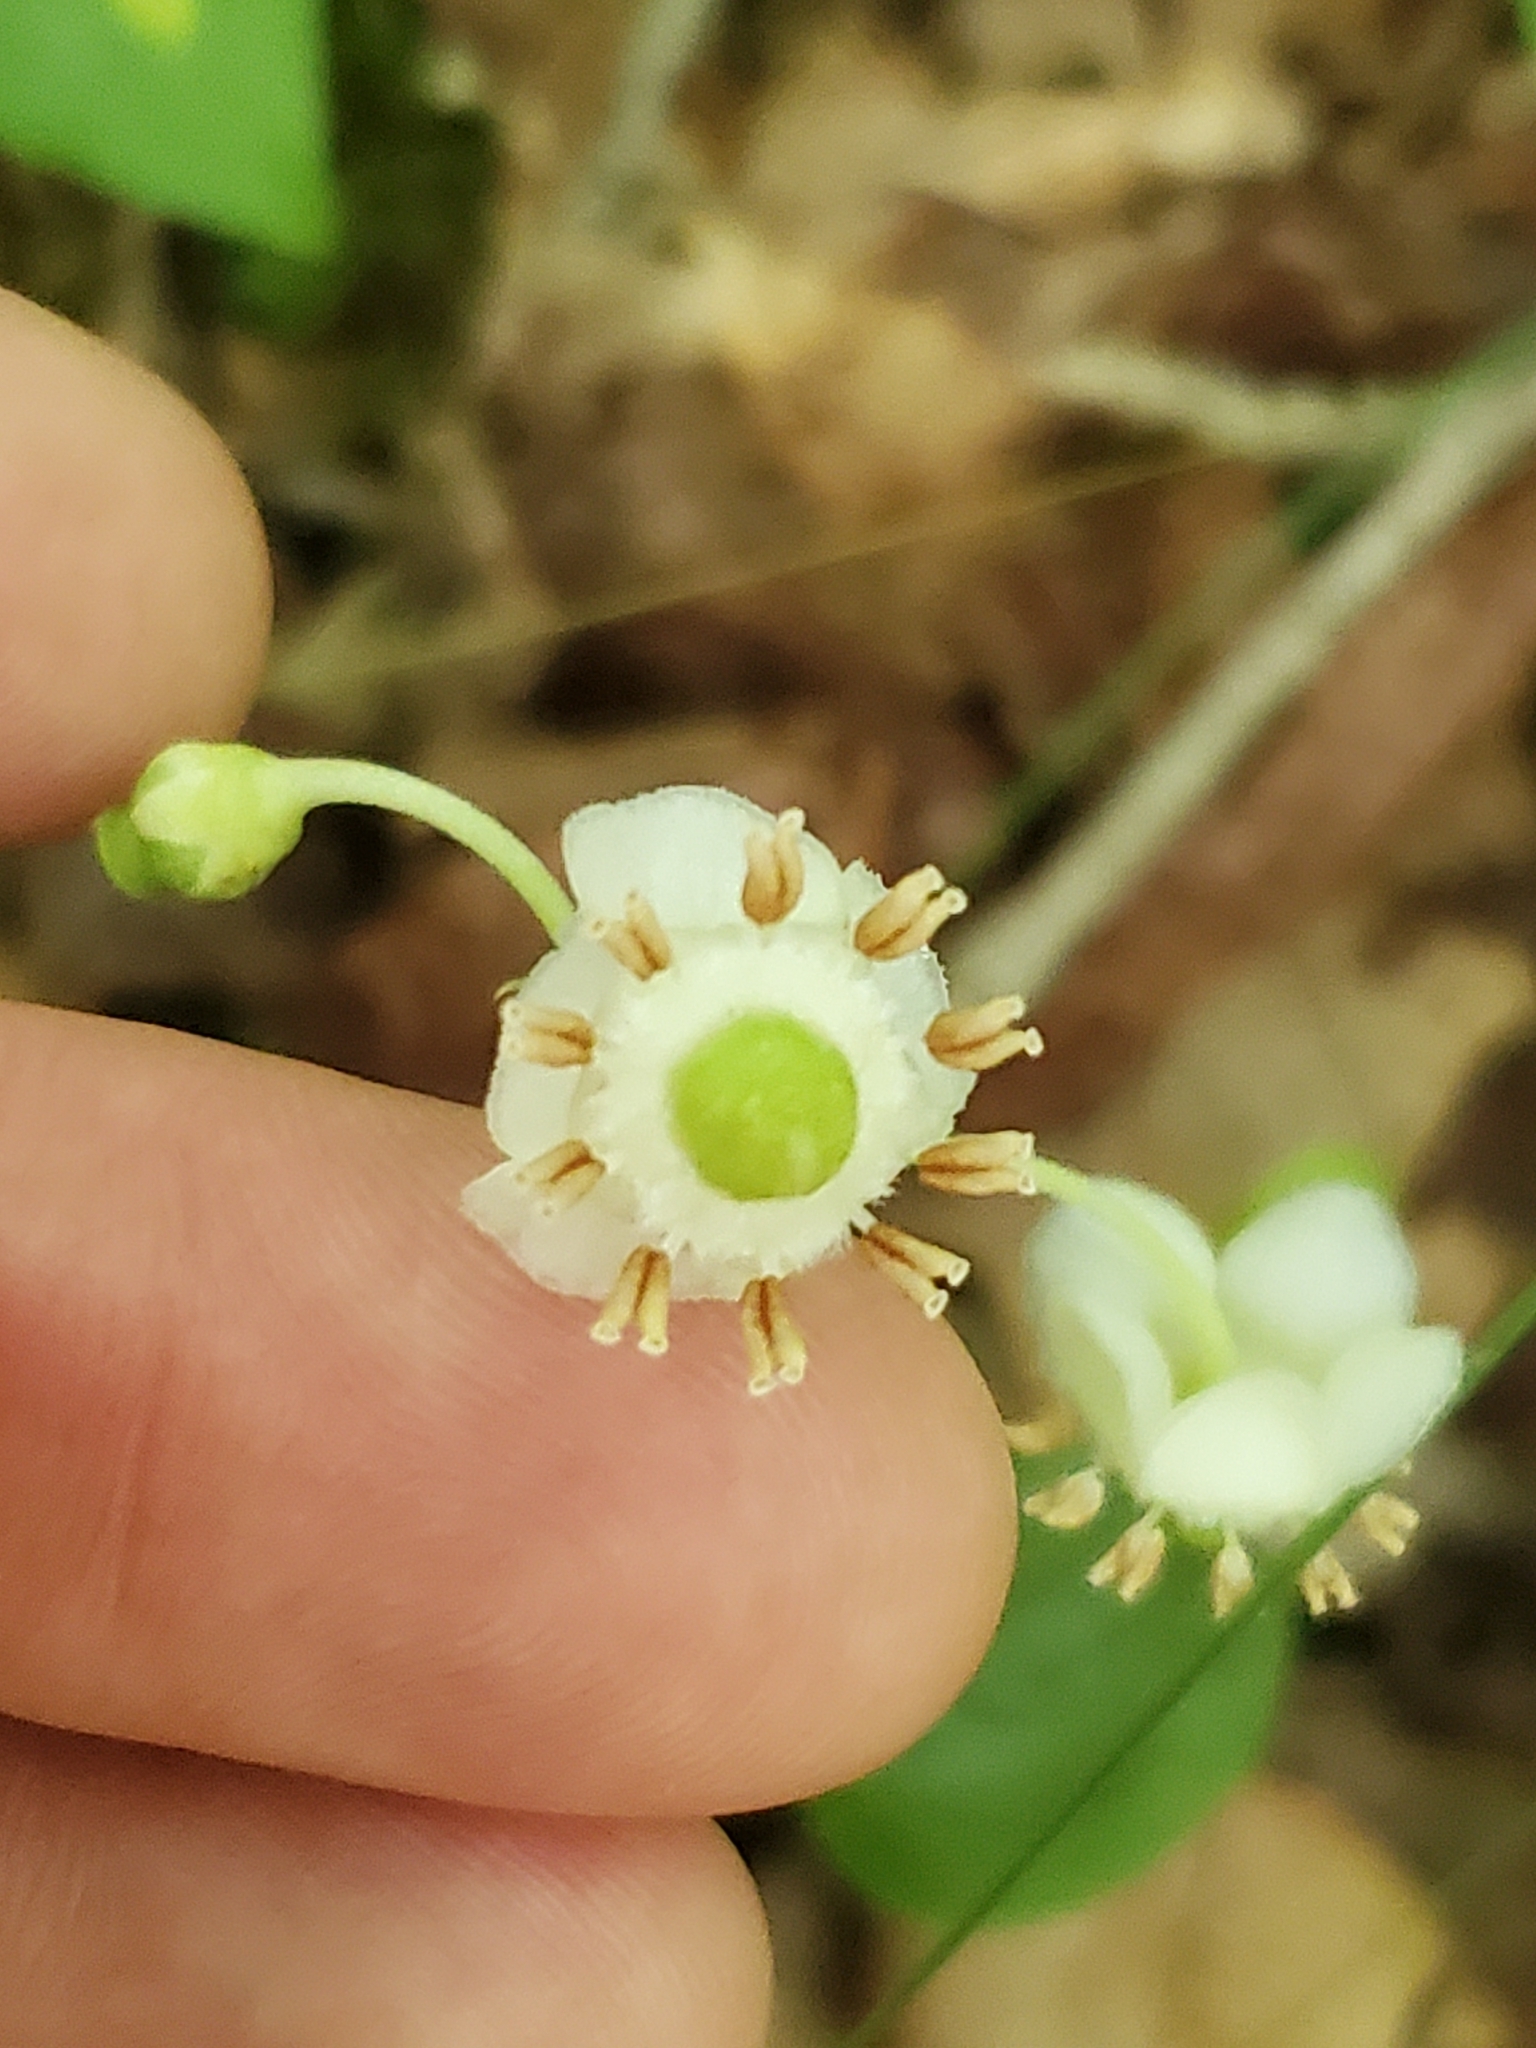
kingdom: Plantae
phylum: Tracheophyta
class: Magnoliopsida
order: Ericales
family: Ericaceae
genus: Chimaphila
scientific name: Chimaphila maculata
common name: Spotted pipsissewa
